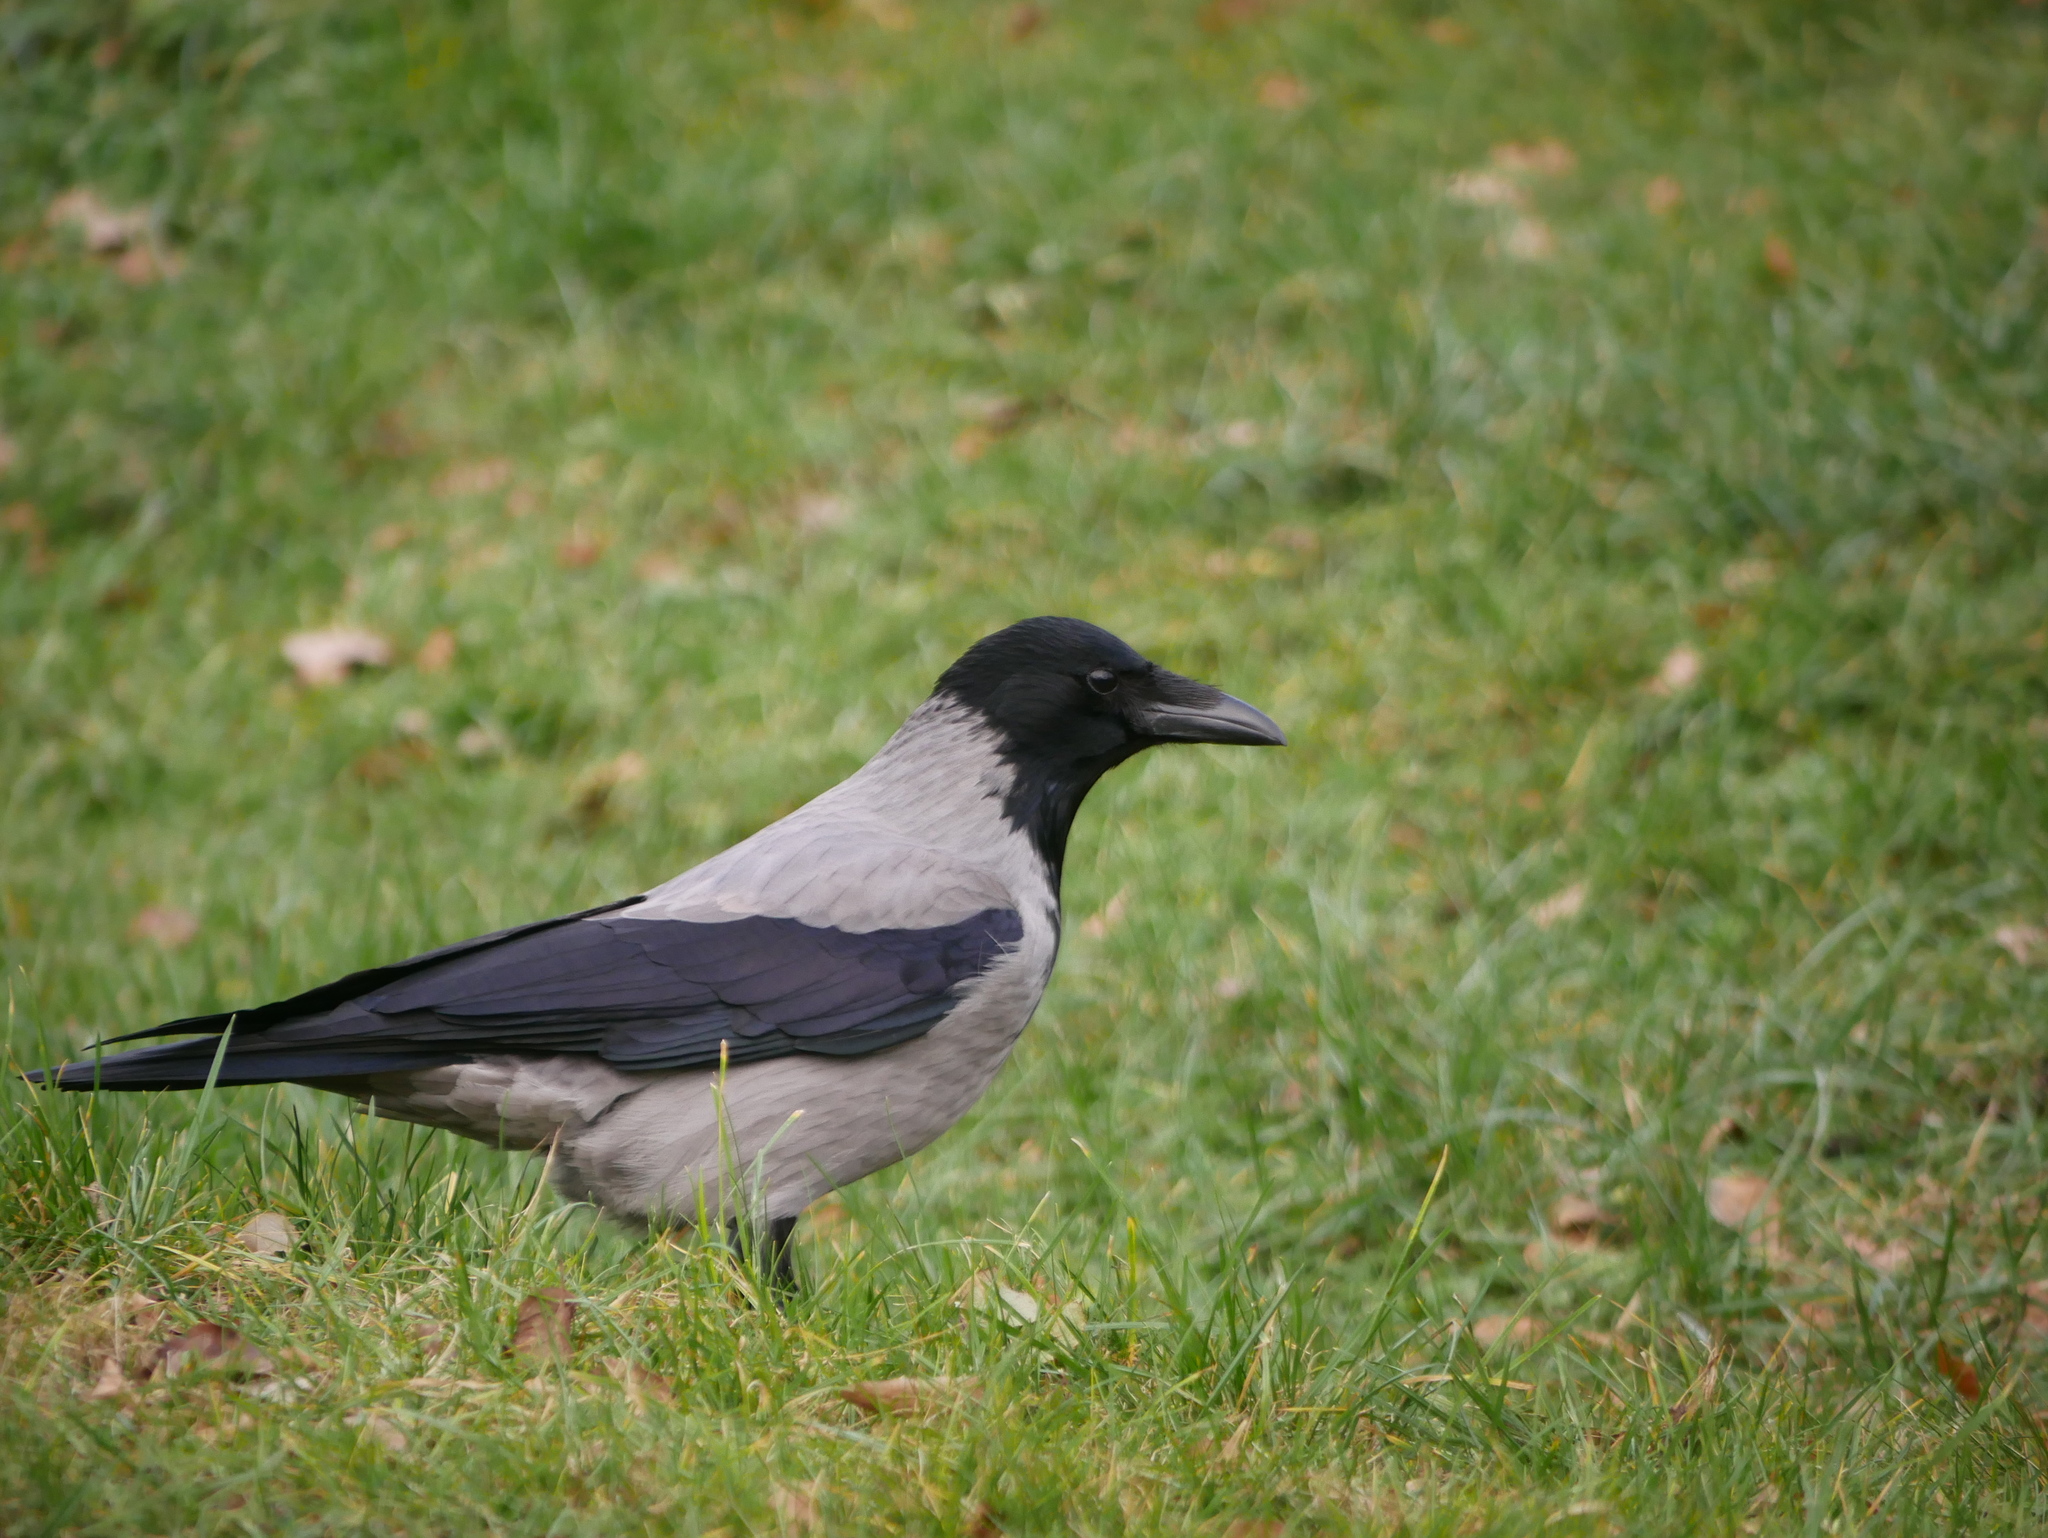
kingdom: Animalia
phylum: Chordata
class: Aves
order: Passeriformes
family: Corvidae
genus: Corvus
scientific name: Corvus cornix
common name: Hooded crow
